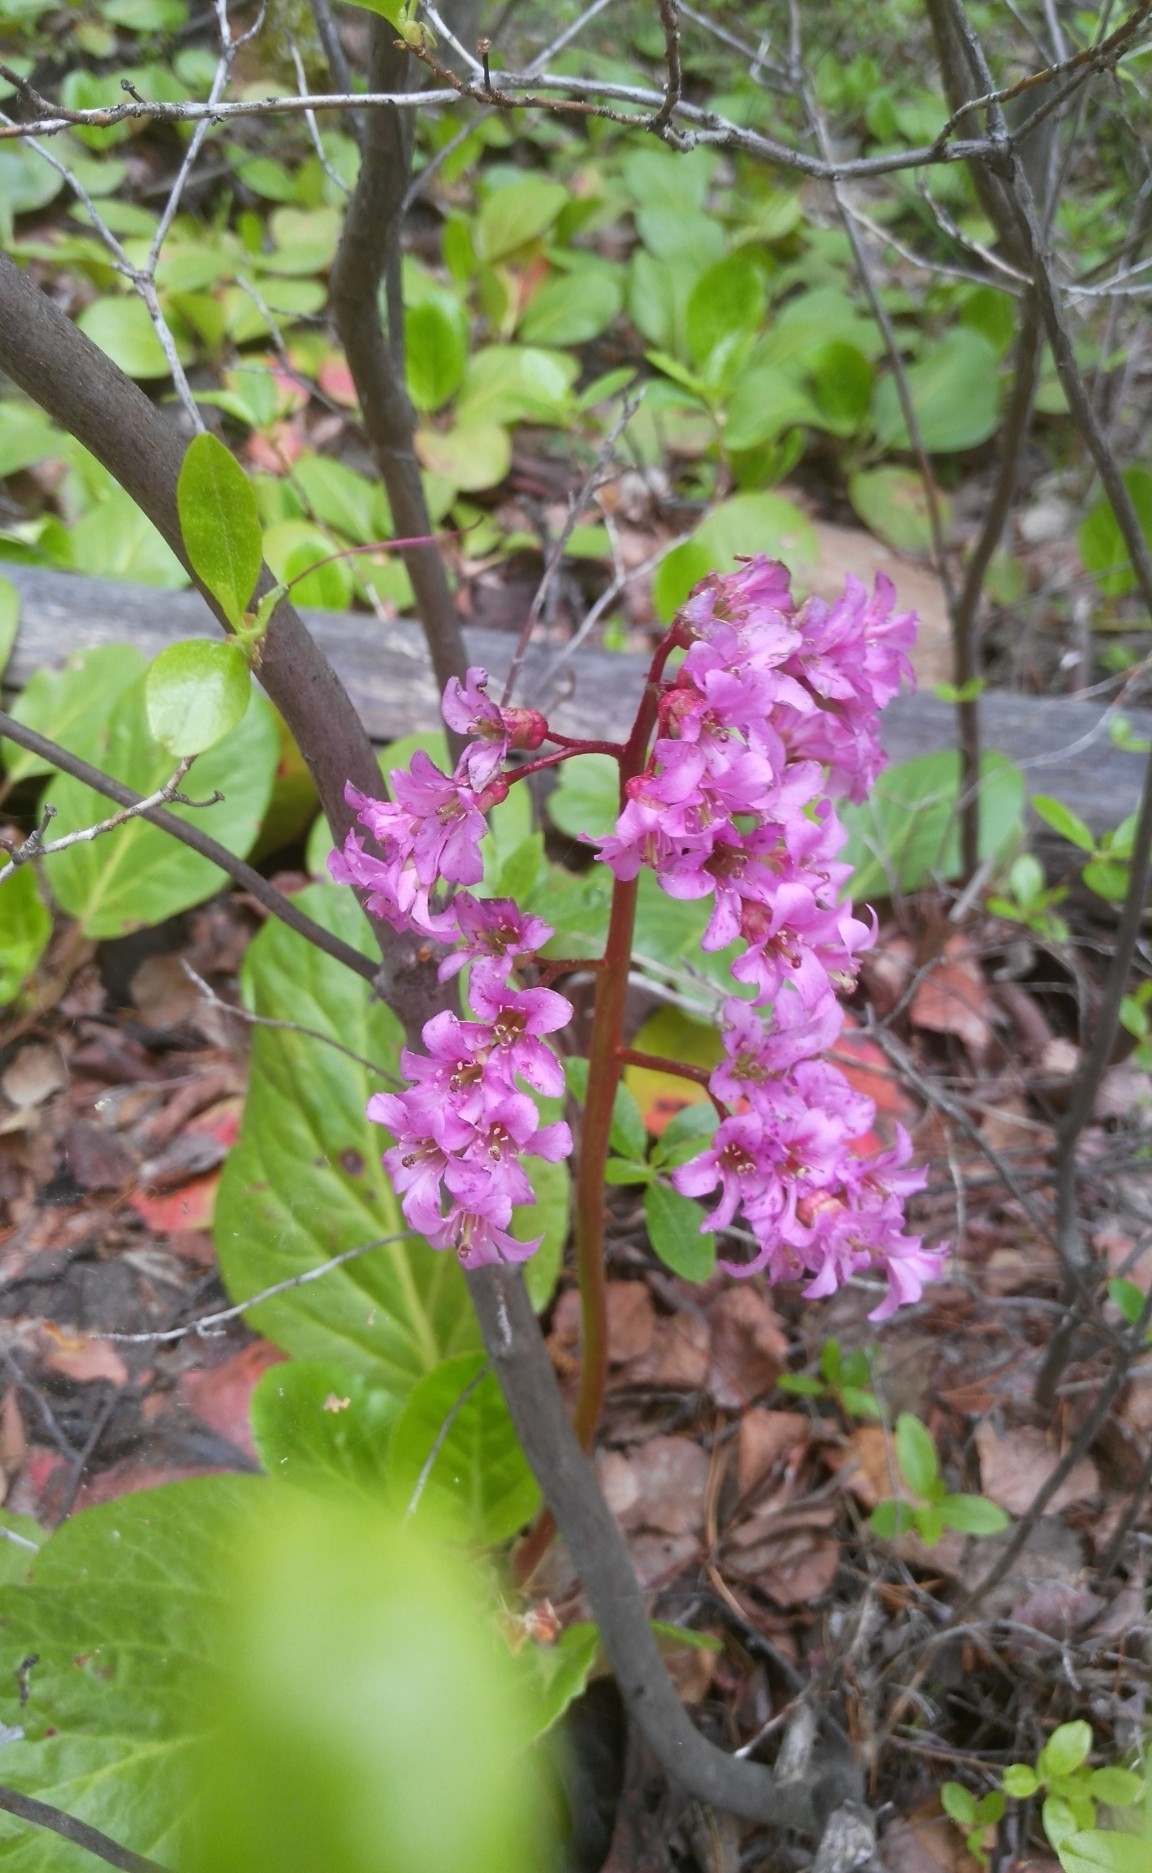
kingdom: Plantae
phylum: Tracheophyta
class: Magnoliopsida
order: Saxifragales
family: Saxifragaceae
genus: Bergenia
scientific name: Bergenia crassifolia
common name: Elephant-ears
